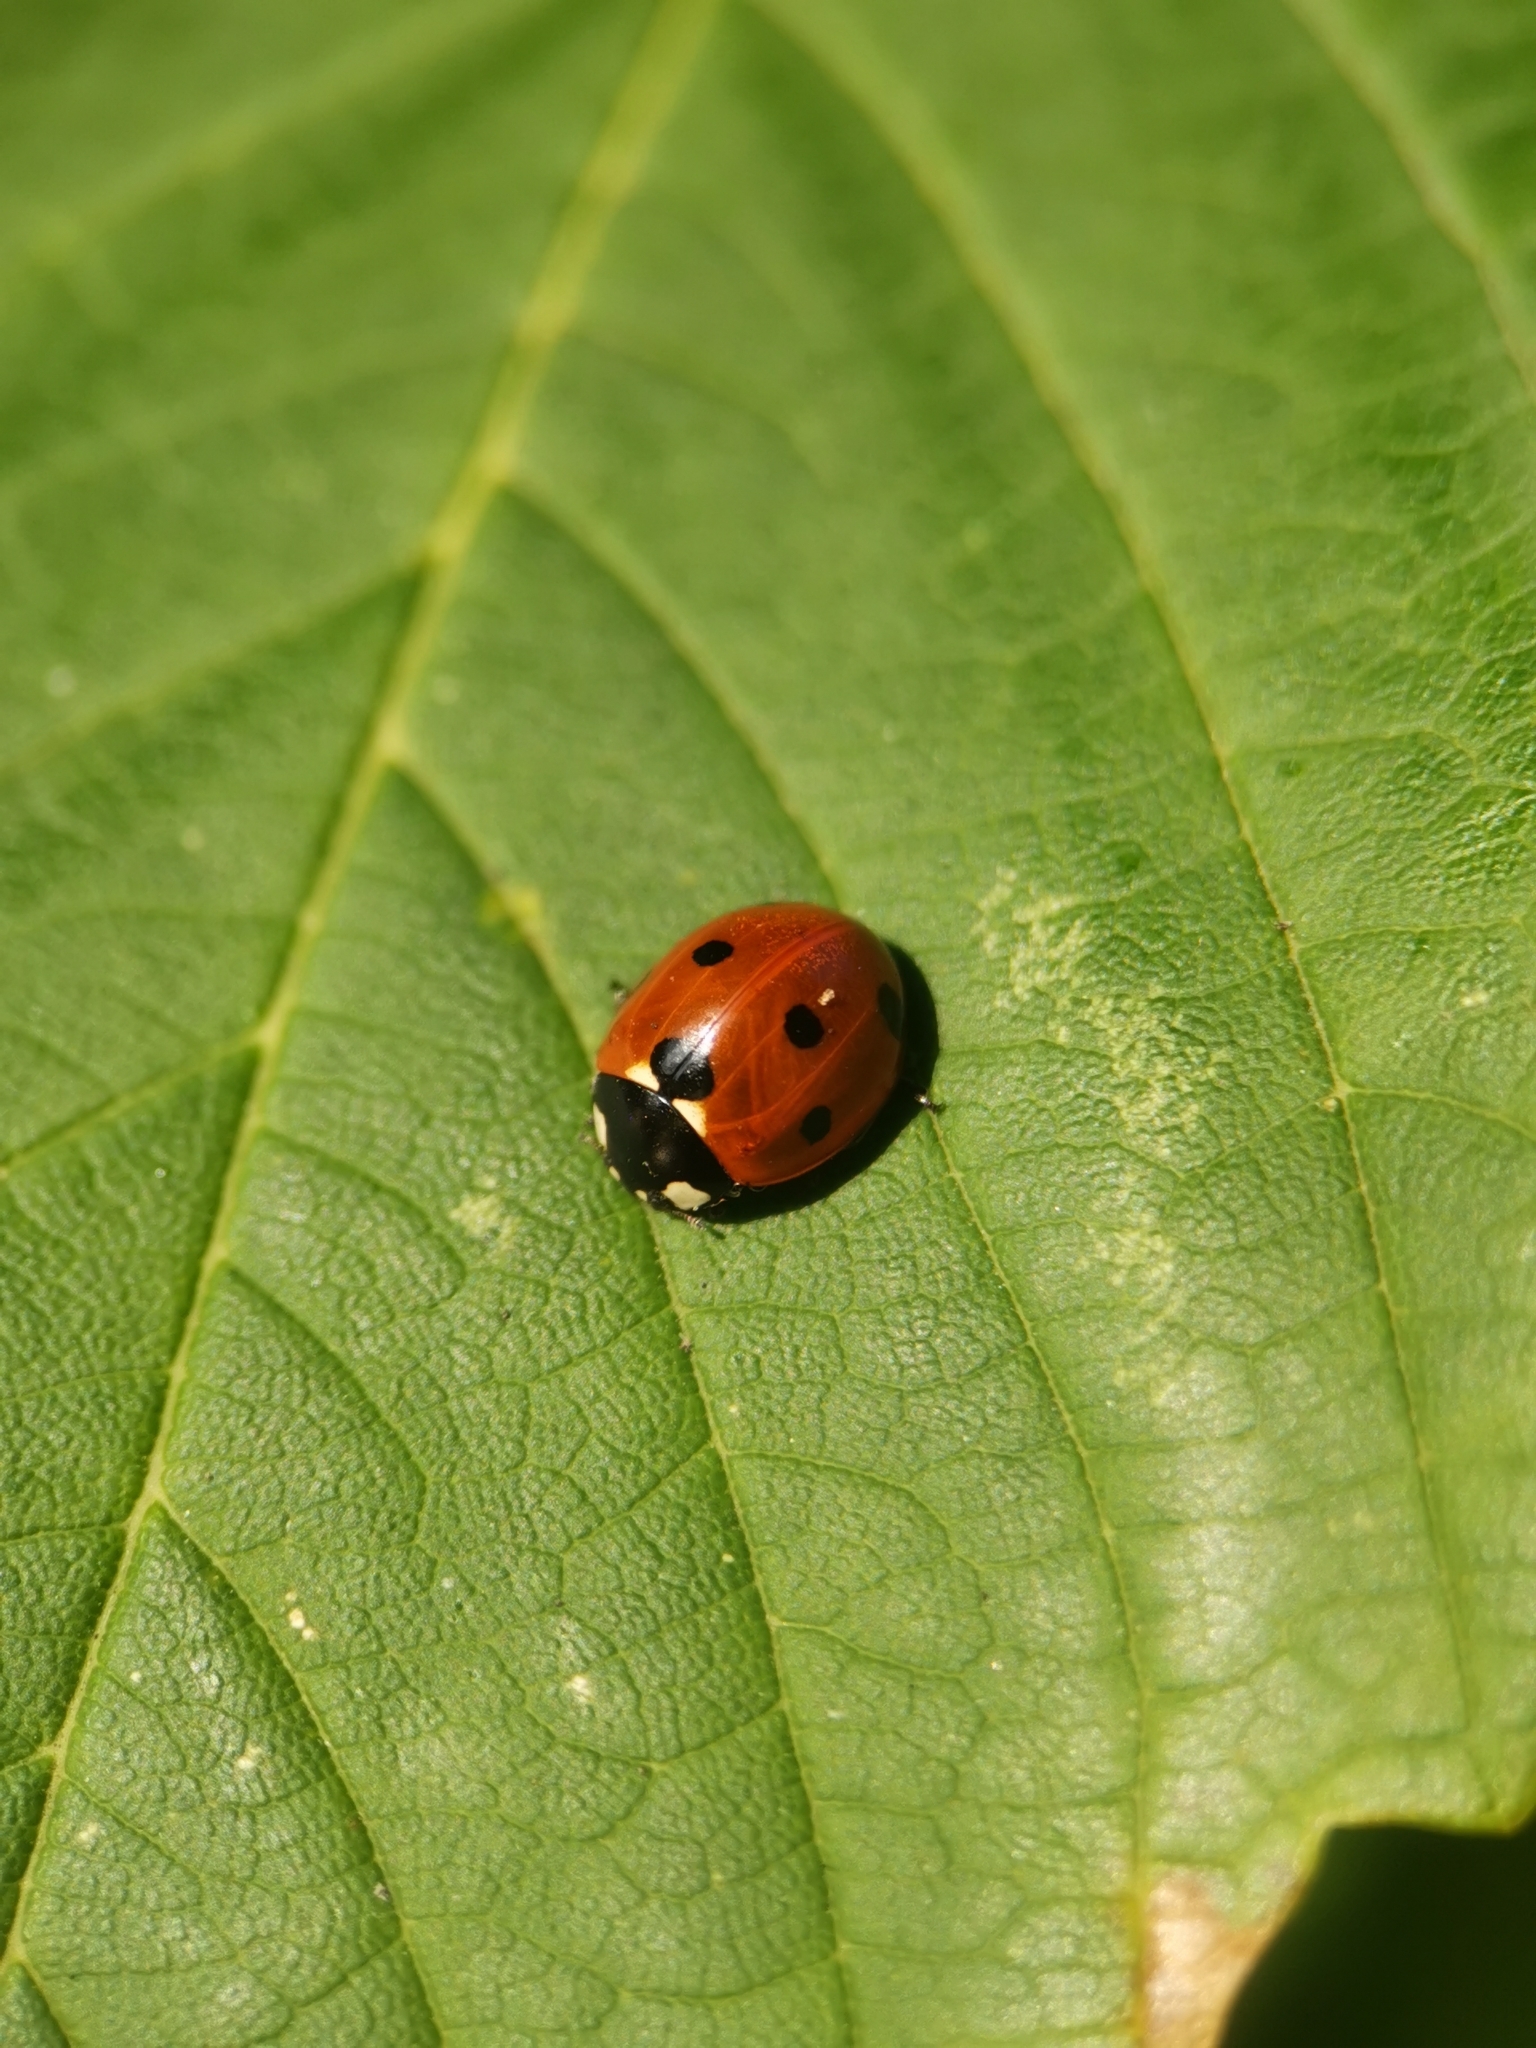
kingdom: Animalia
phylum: Arthropoda
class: Insecta
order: Coleoptera
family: Coccinellidae
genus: Coccinella
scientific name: Coccinella septempunctata
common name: Sevenspotted lady beetle
